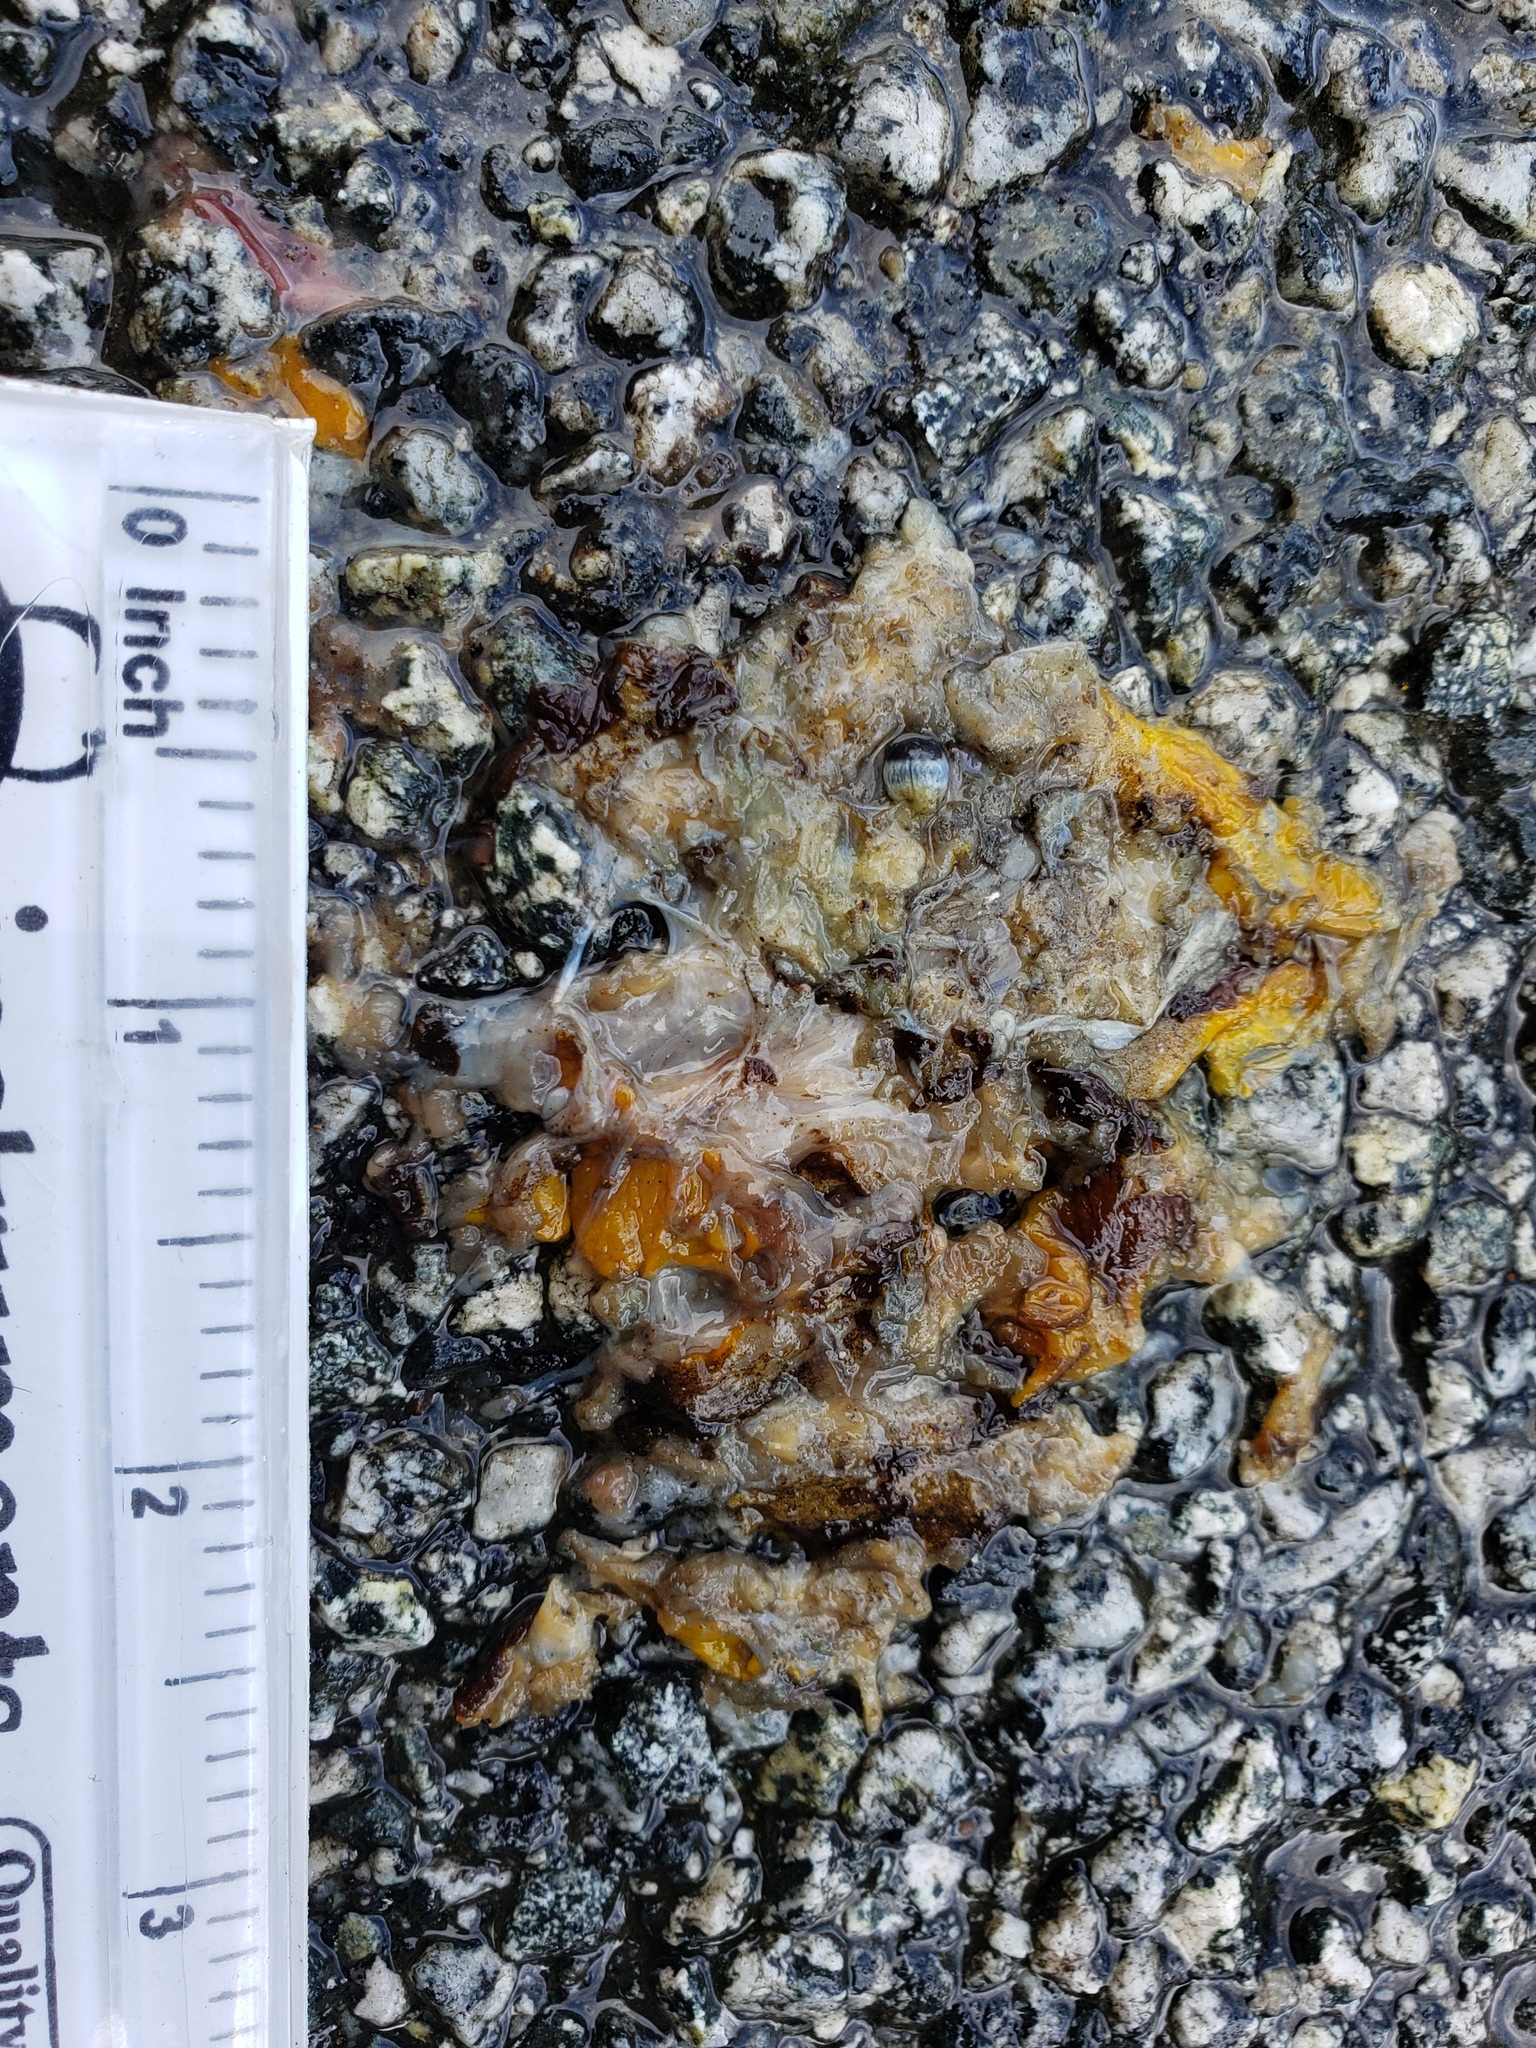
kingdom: Animalia
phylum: Chordata
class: Amphibia
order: Caudata
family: Salamandridae
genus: Taricha
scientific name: Taricha
